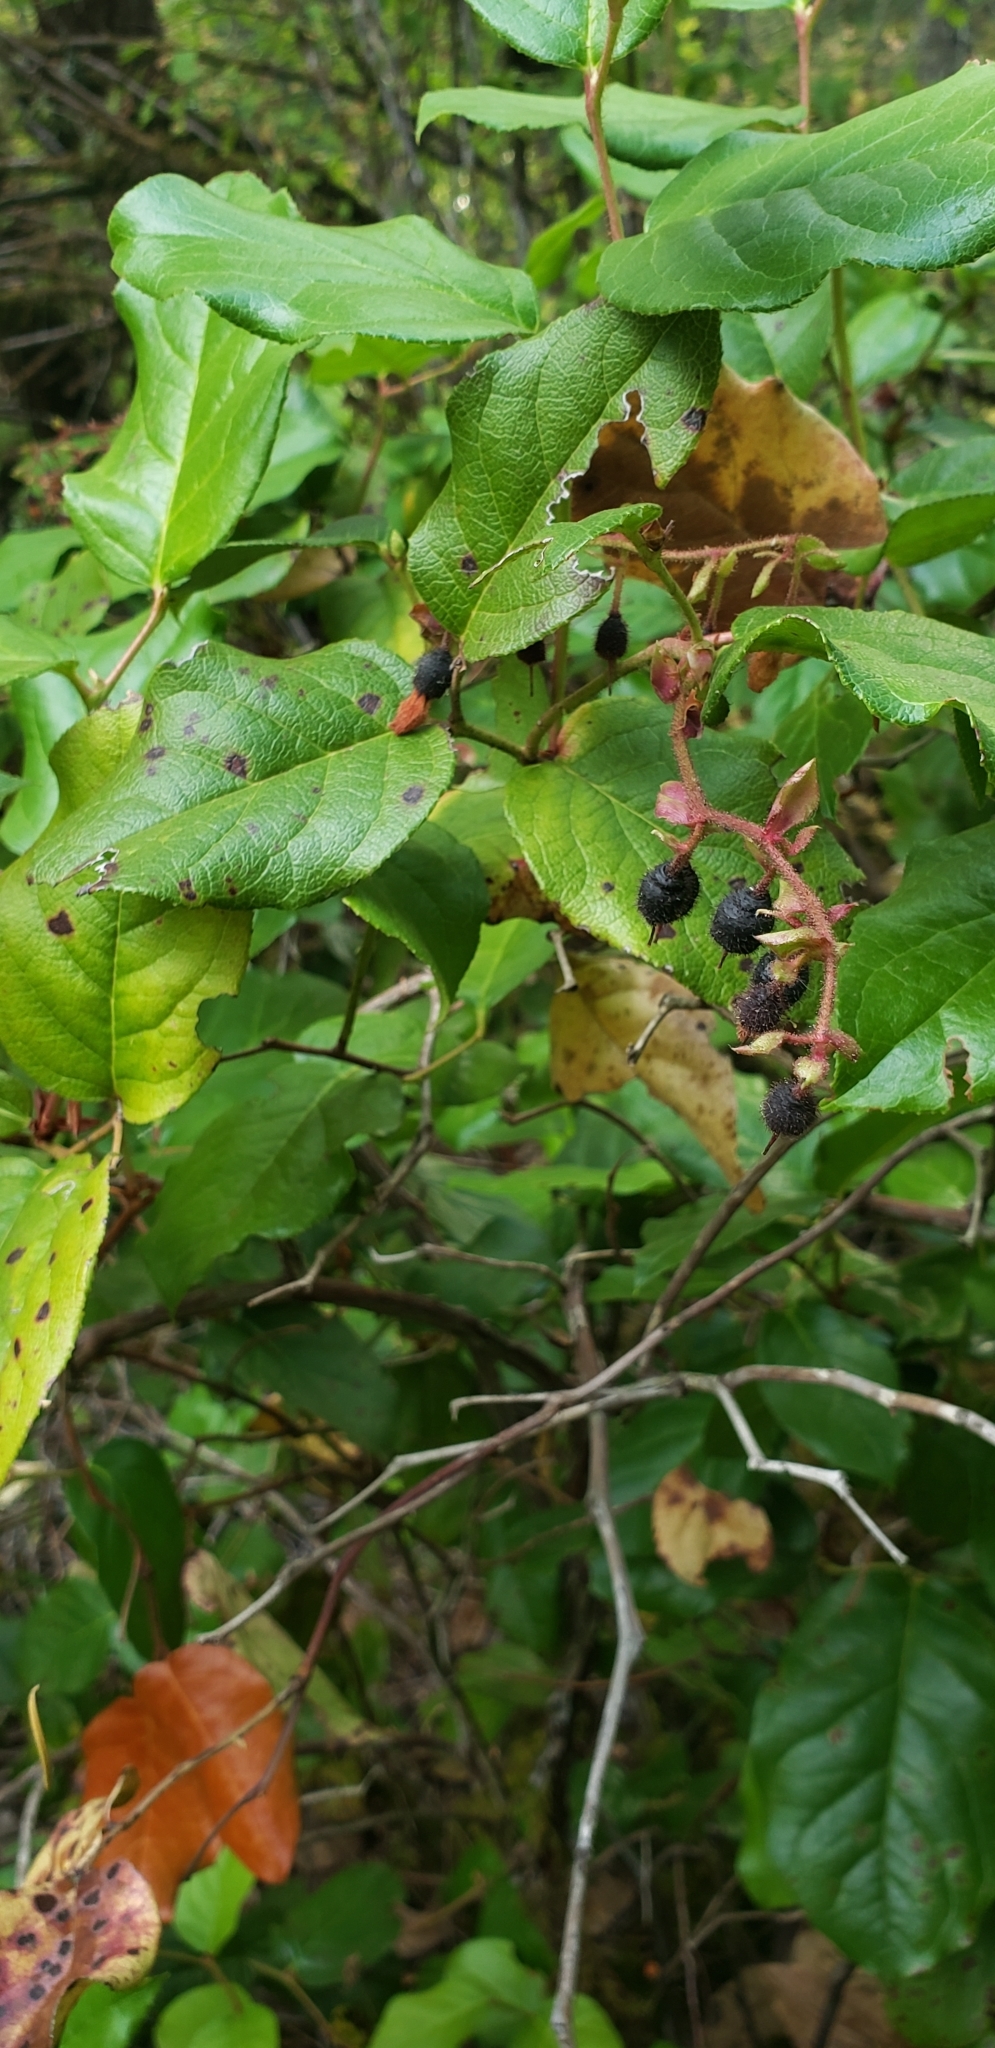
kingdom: Plantae
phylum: Tracheophyta
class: Magnoliopsida
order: Ericales
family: Ericaceae
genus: Gaultheria
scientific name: Gaultheria shallon
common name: Shallon
